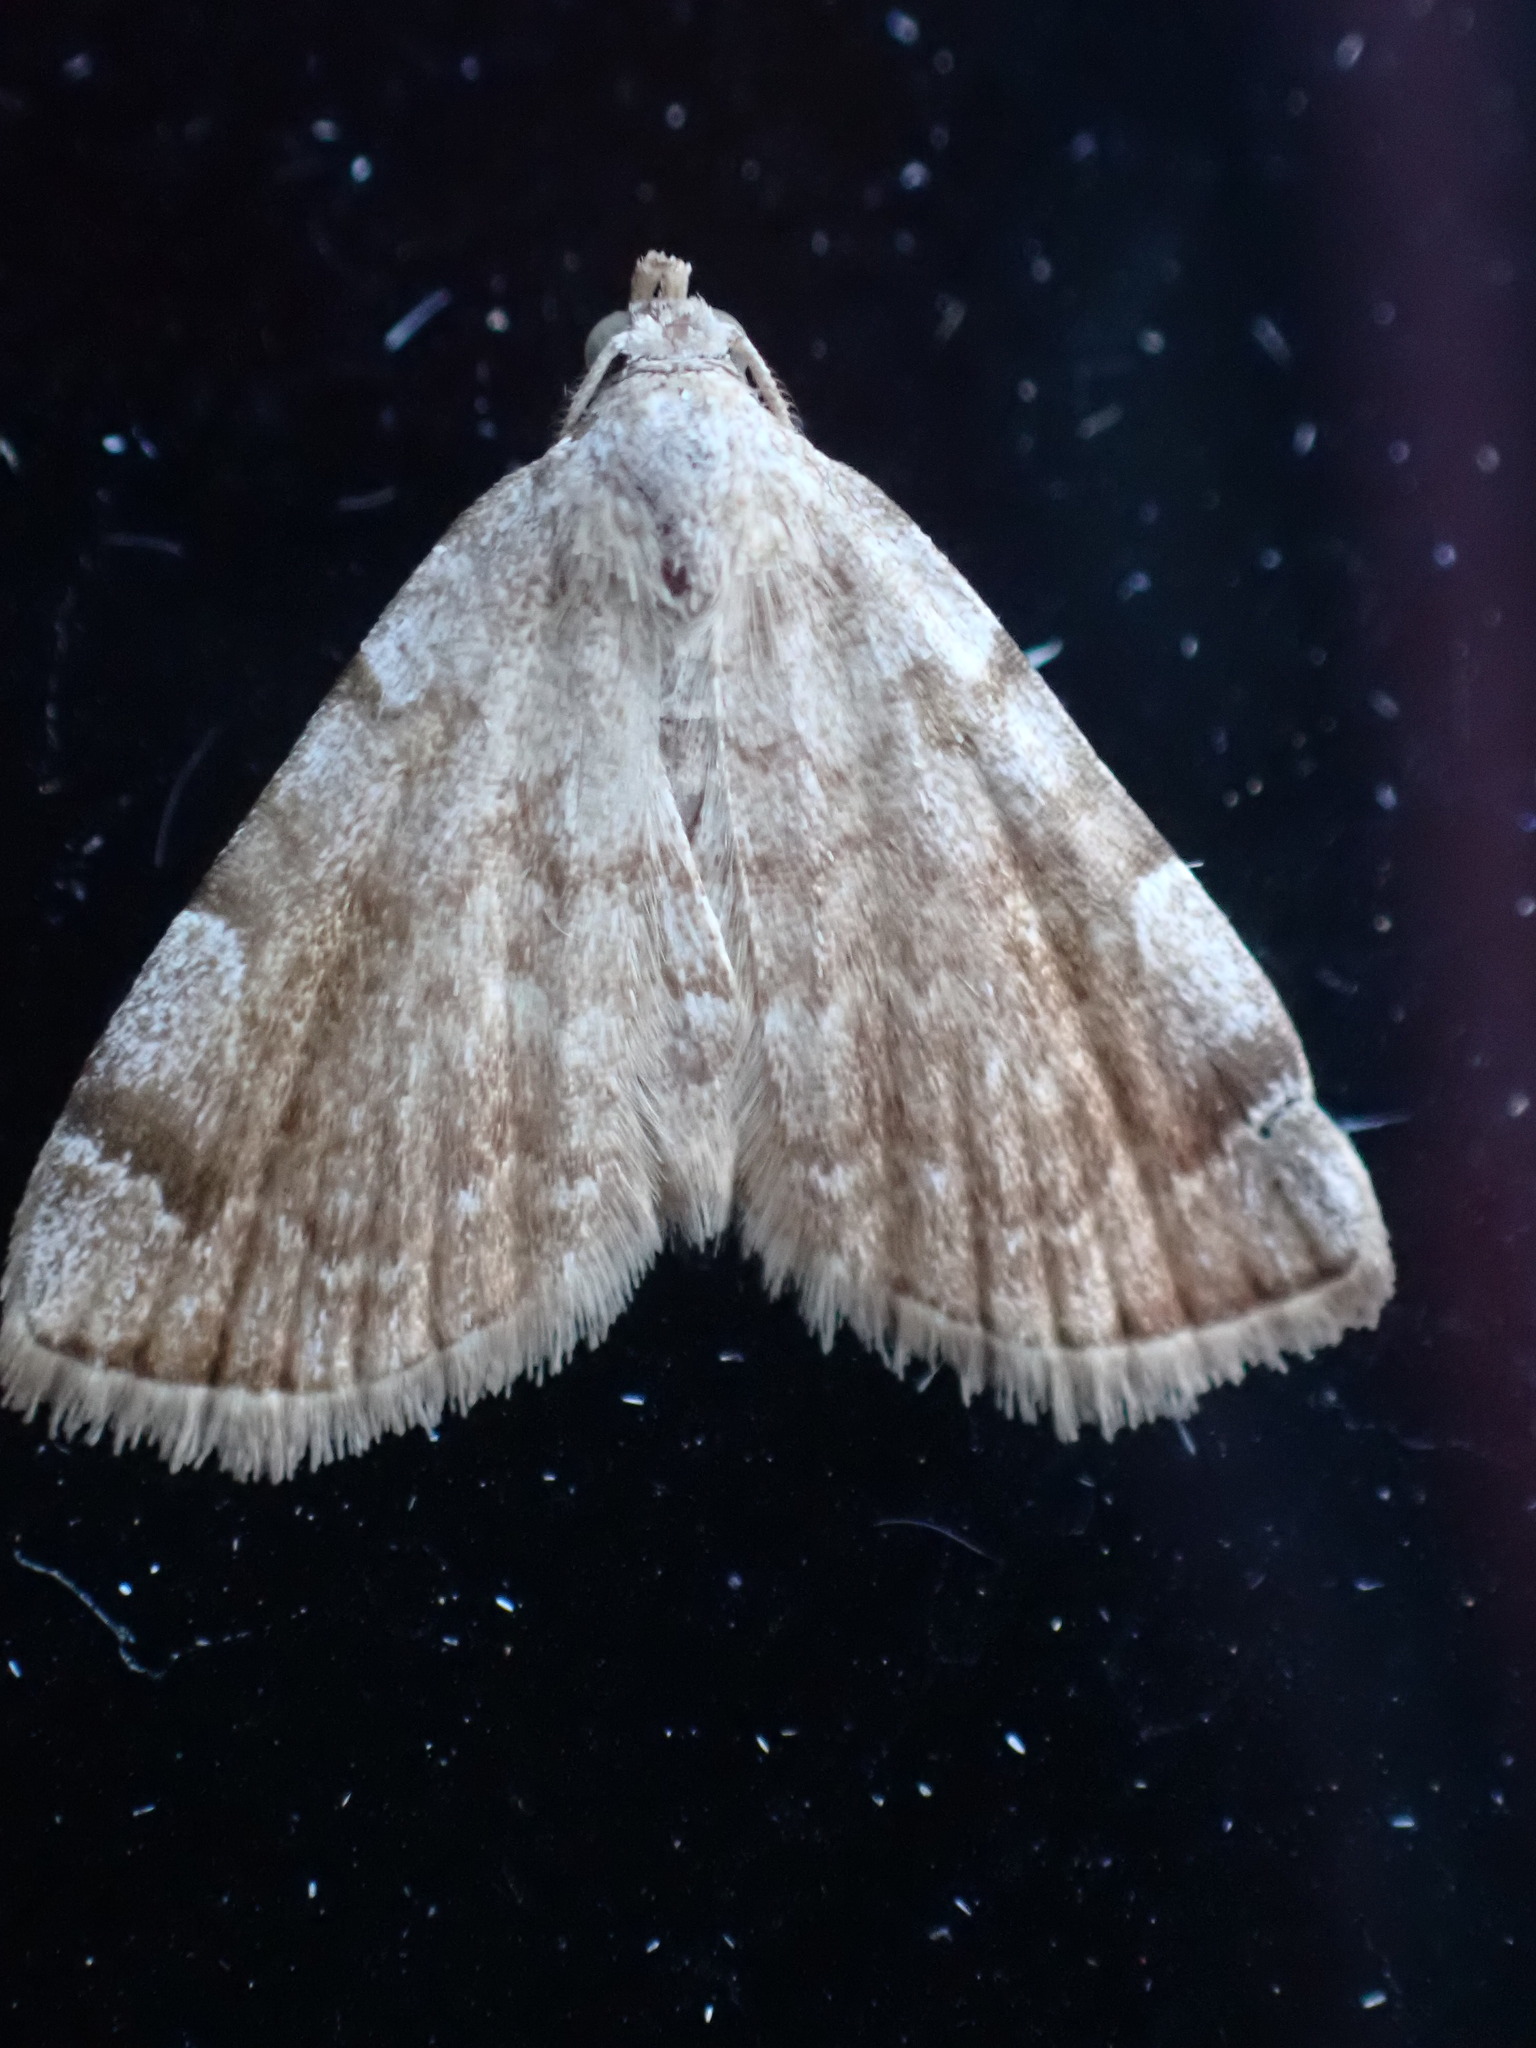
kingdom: Animalia
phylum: Arthropoda
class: Insecta
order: Lepidoptera
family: Erebidae
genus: Idia
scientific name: Idia americalis
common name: American idia moth
